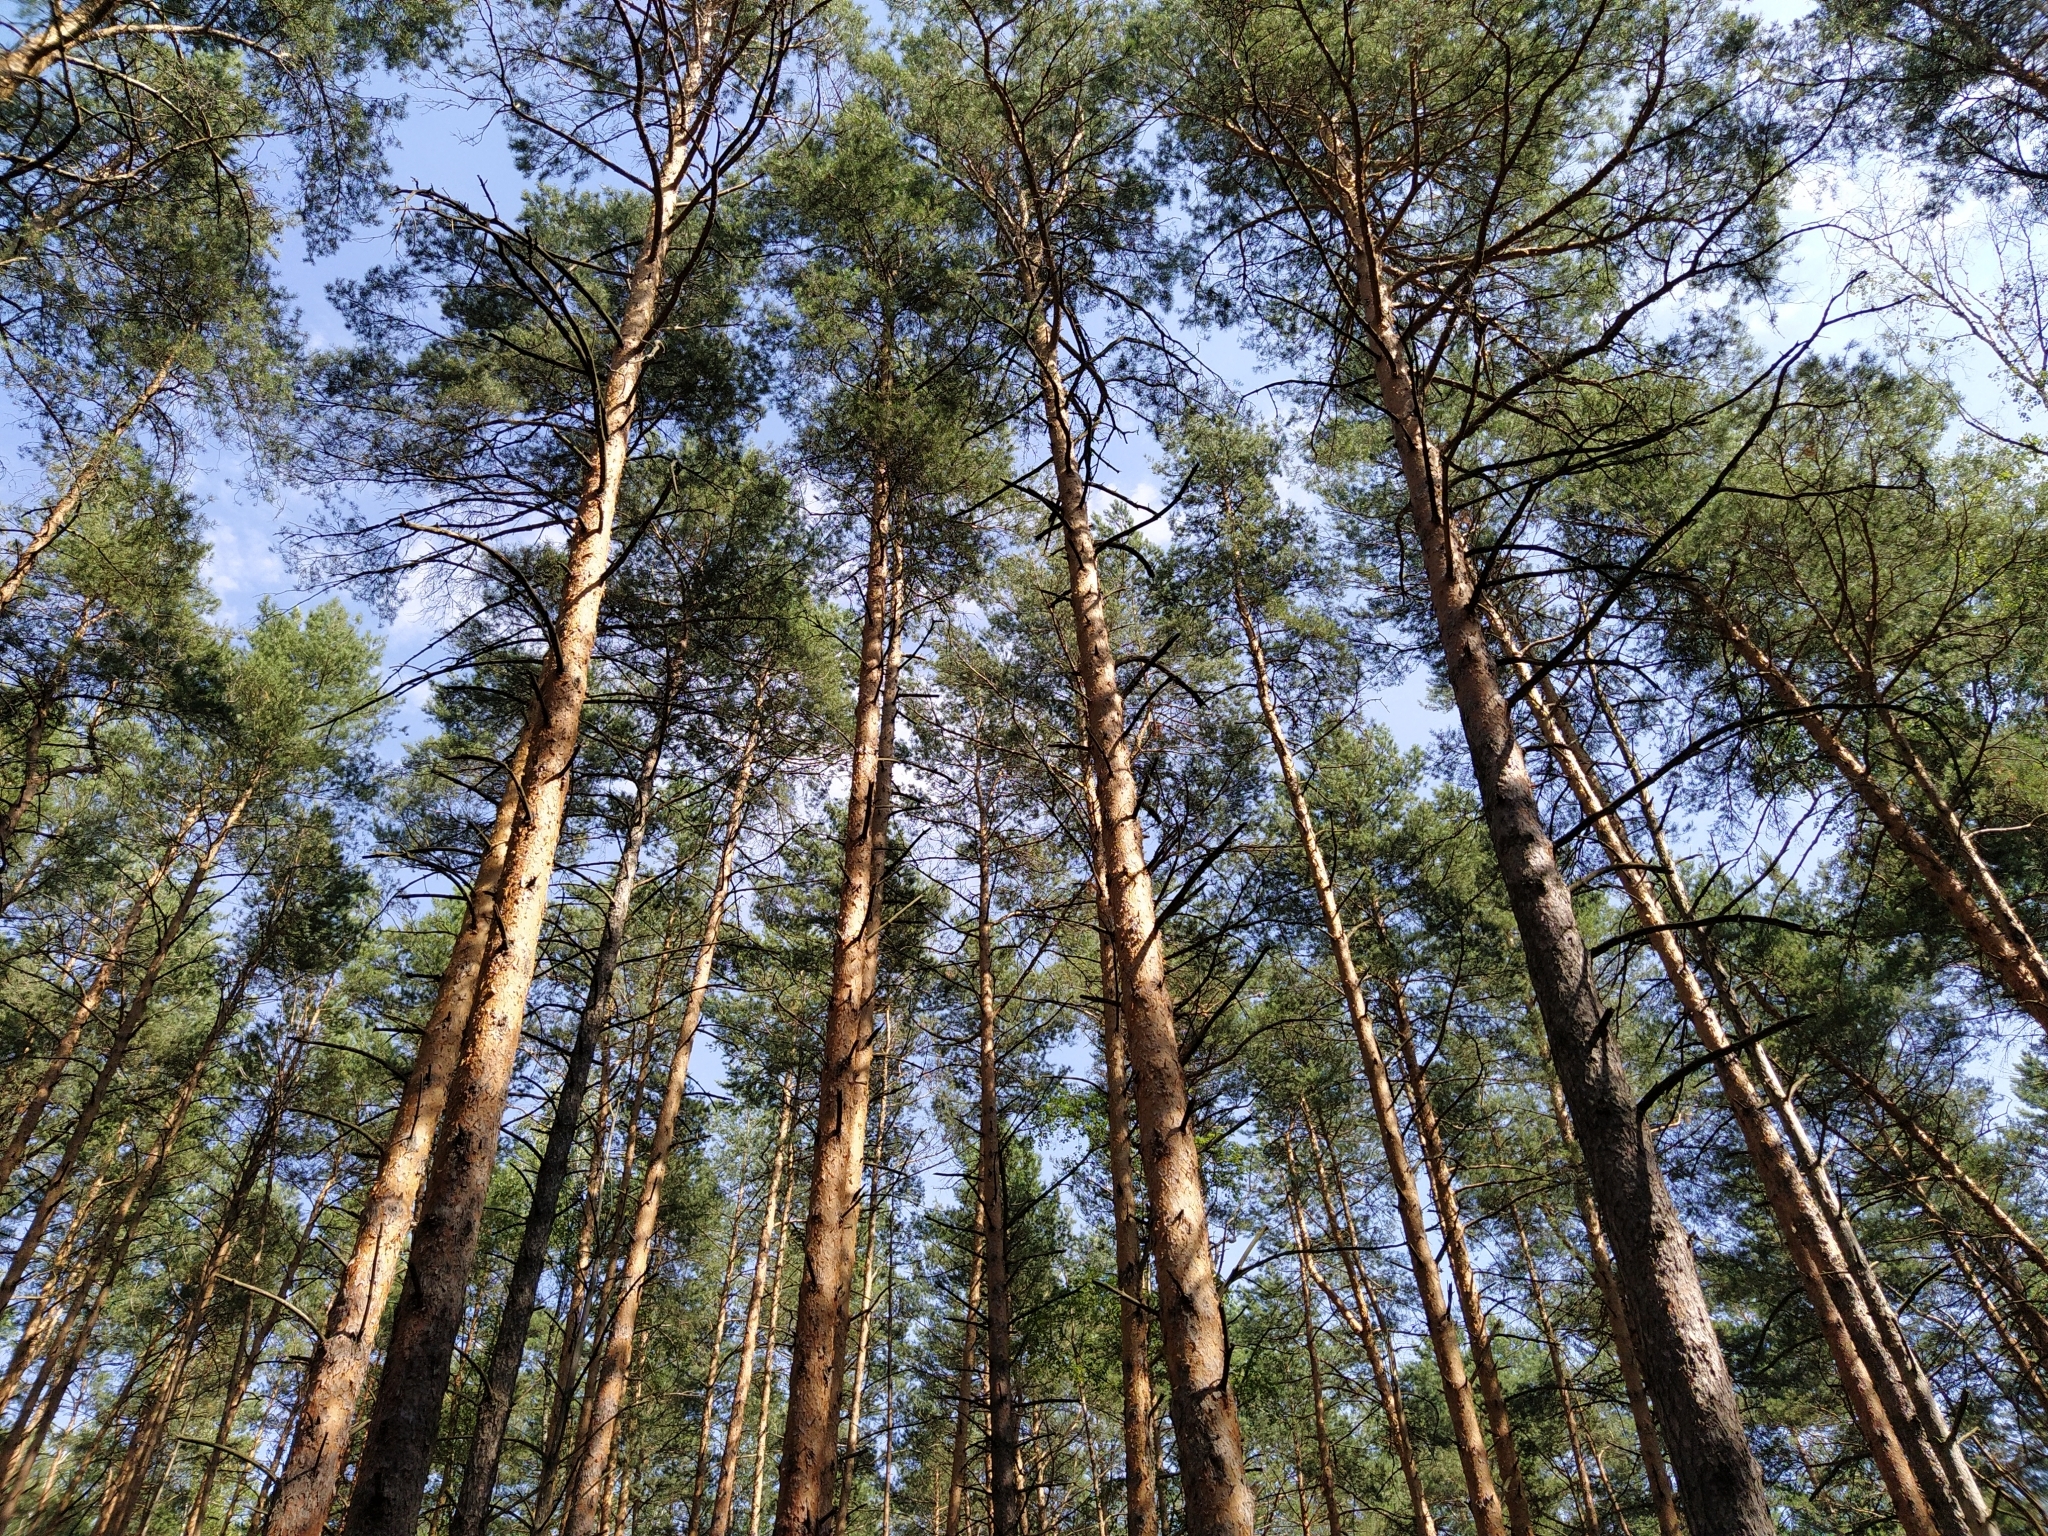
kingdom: Plantae
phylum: Tracheophyta
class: Pinopsida
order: Pinales
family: Pinaceae
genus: Pinus
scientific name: Pinus sylvestris
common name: Scots pine
